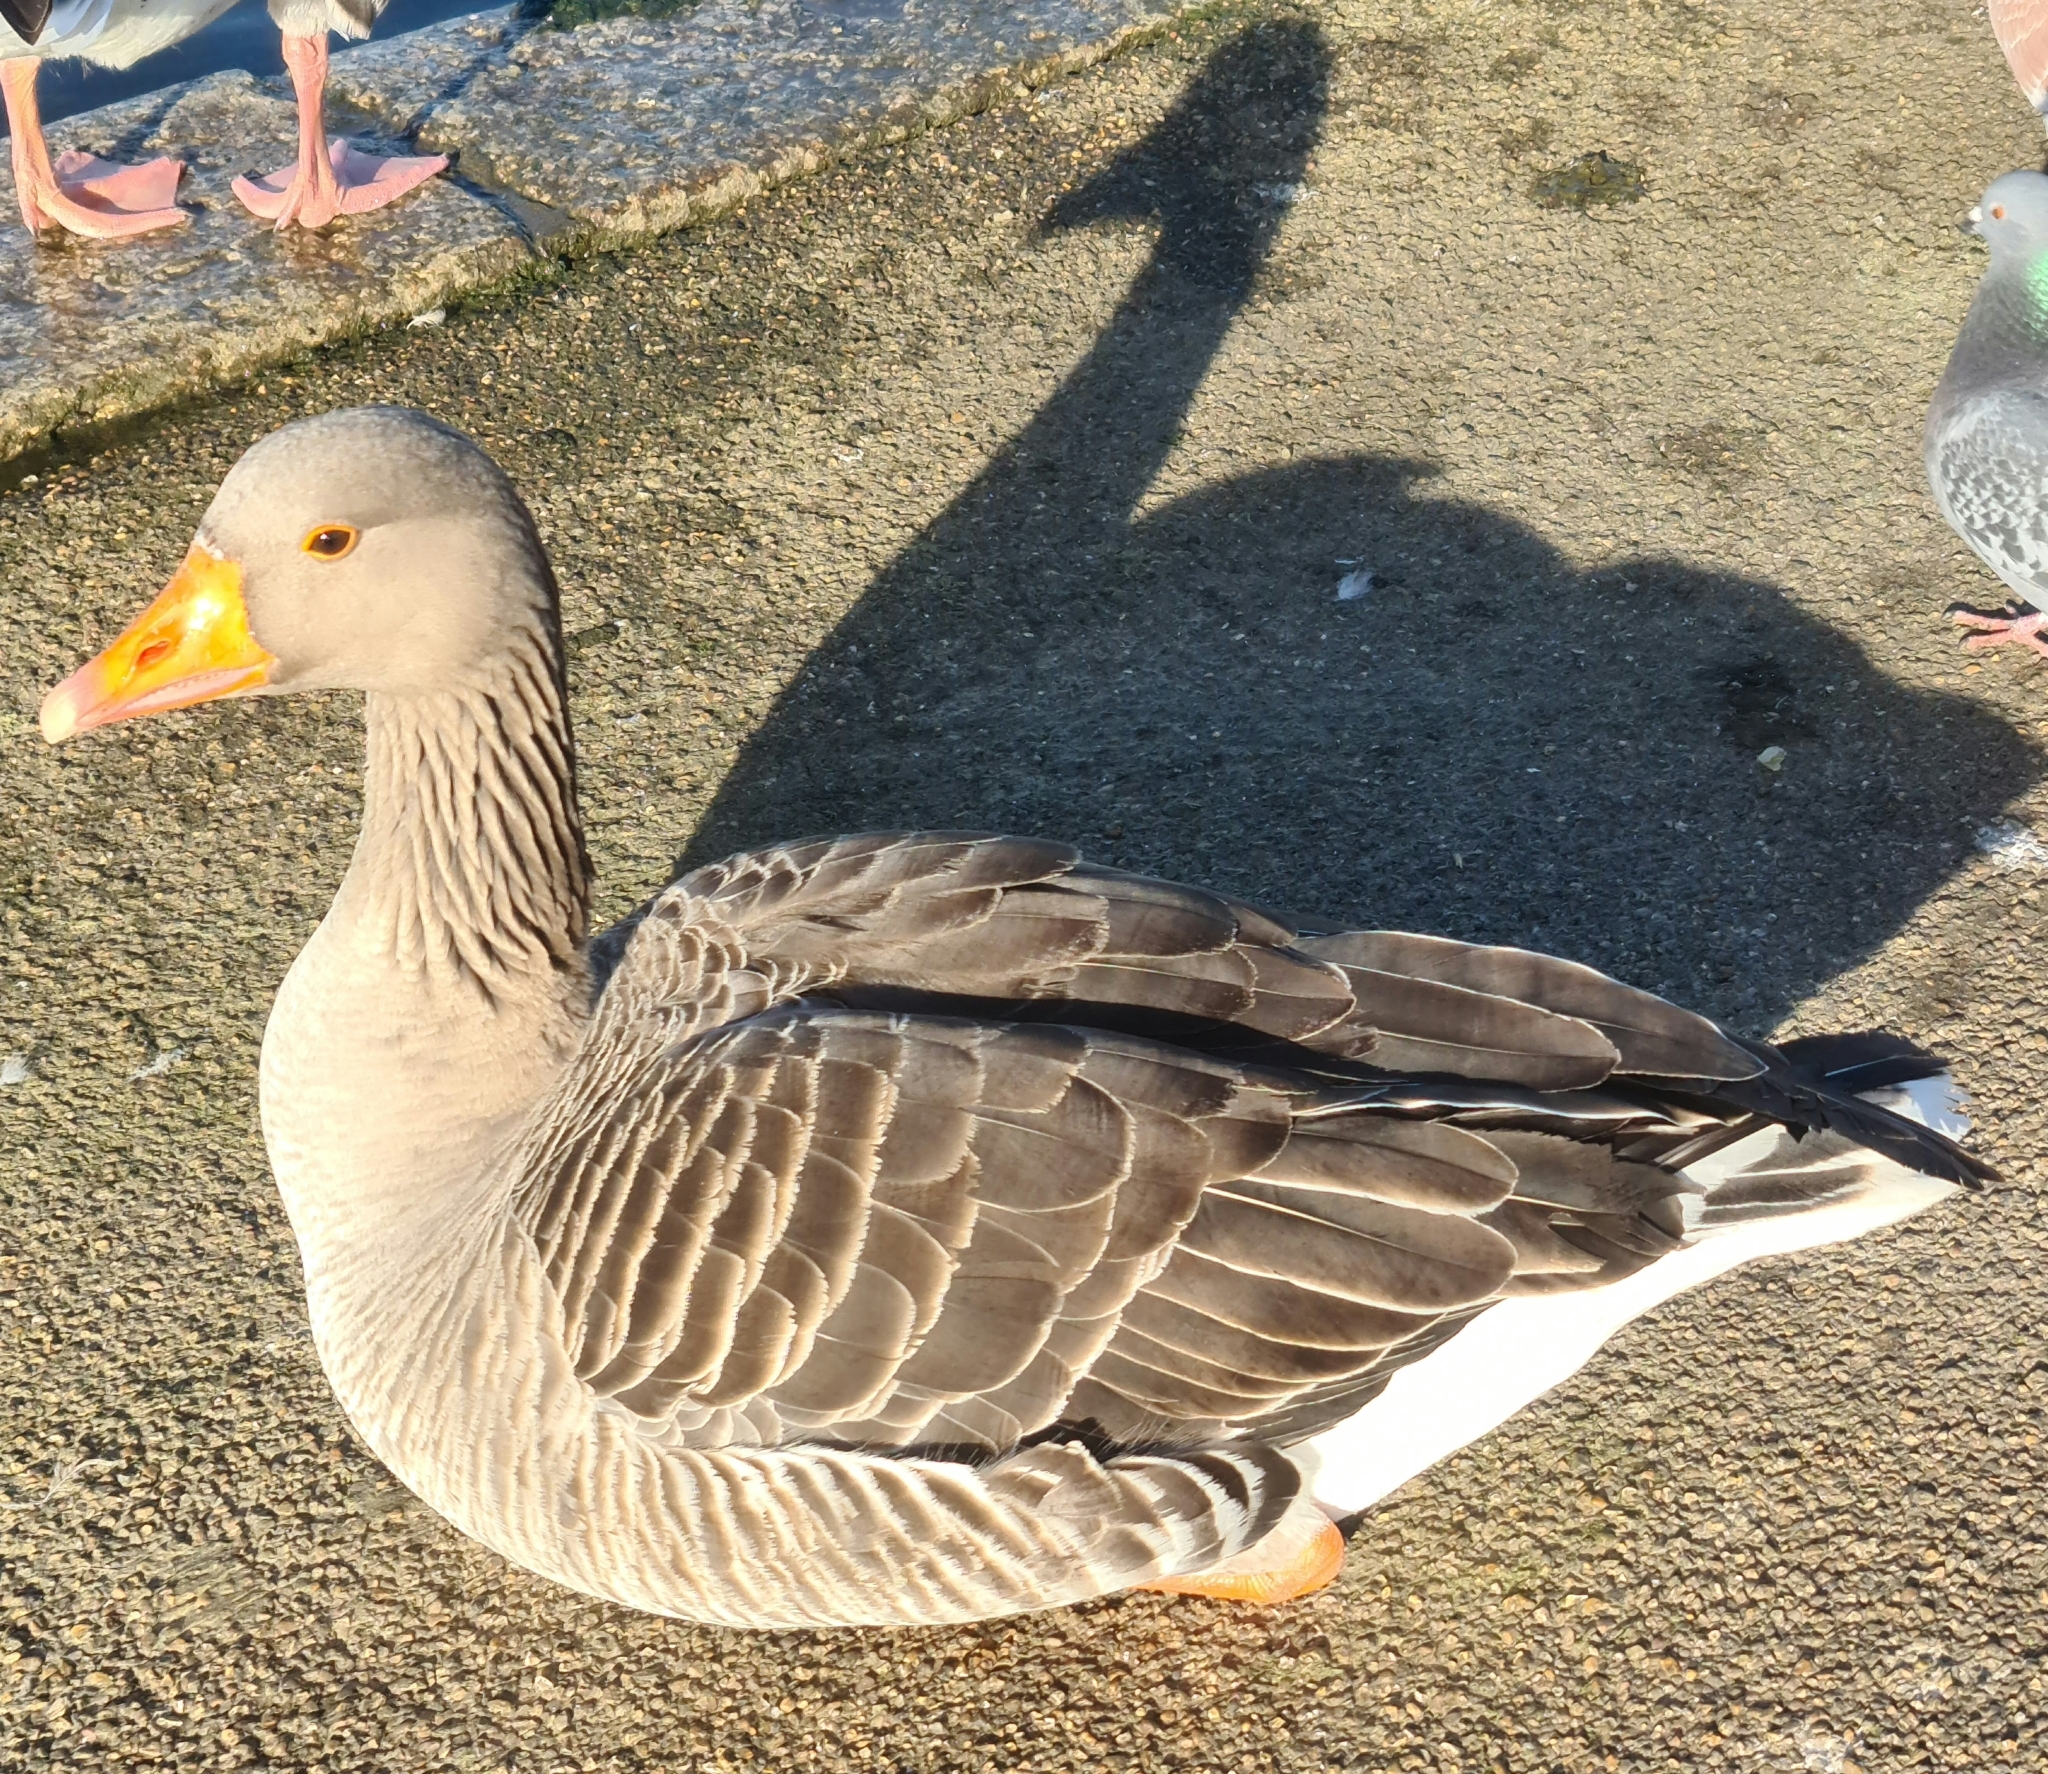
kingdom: Animalia
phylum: Chordata
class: Aves
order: Anseriformes
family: Anatidae
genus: Anser
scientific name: Anser anser
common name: Greylag goose
